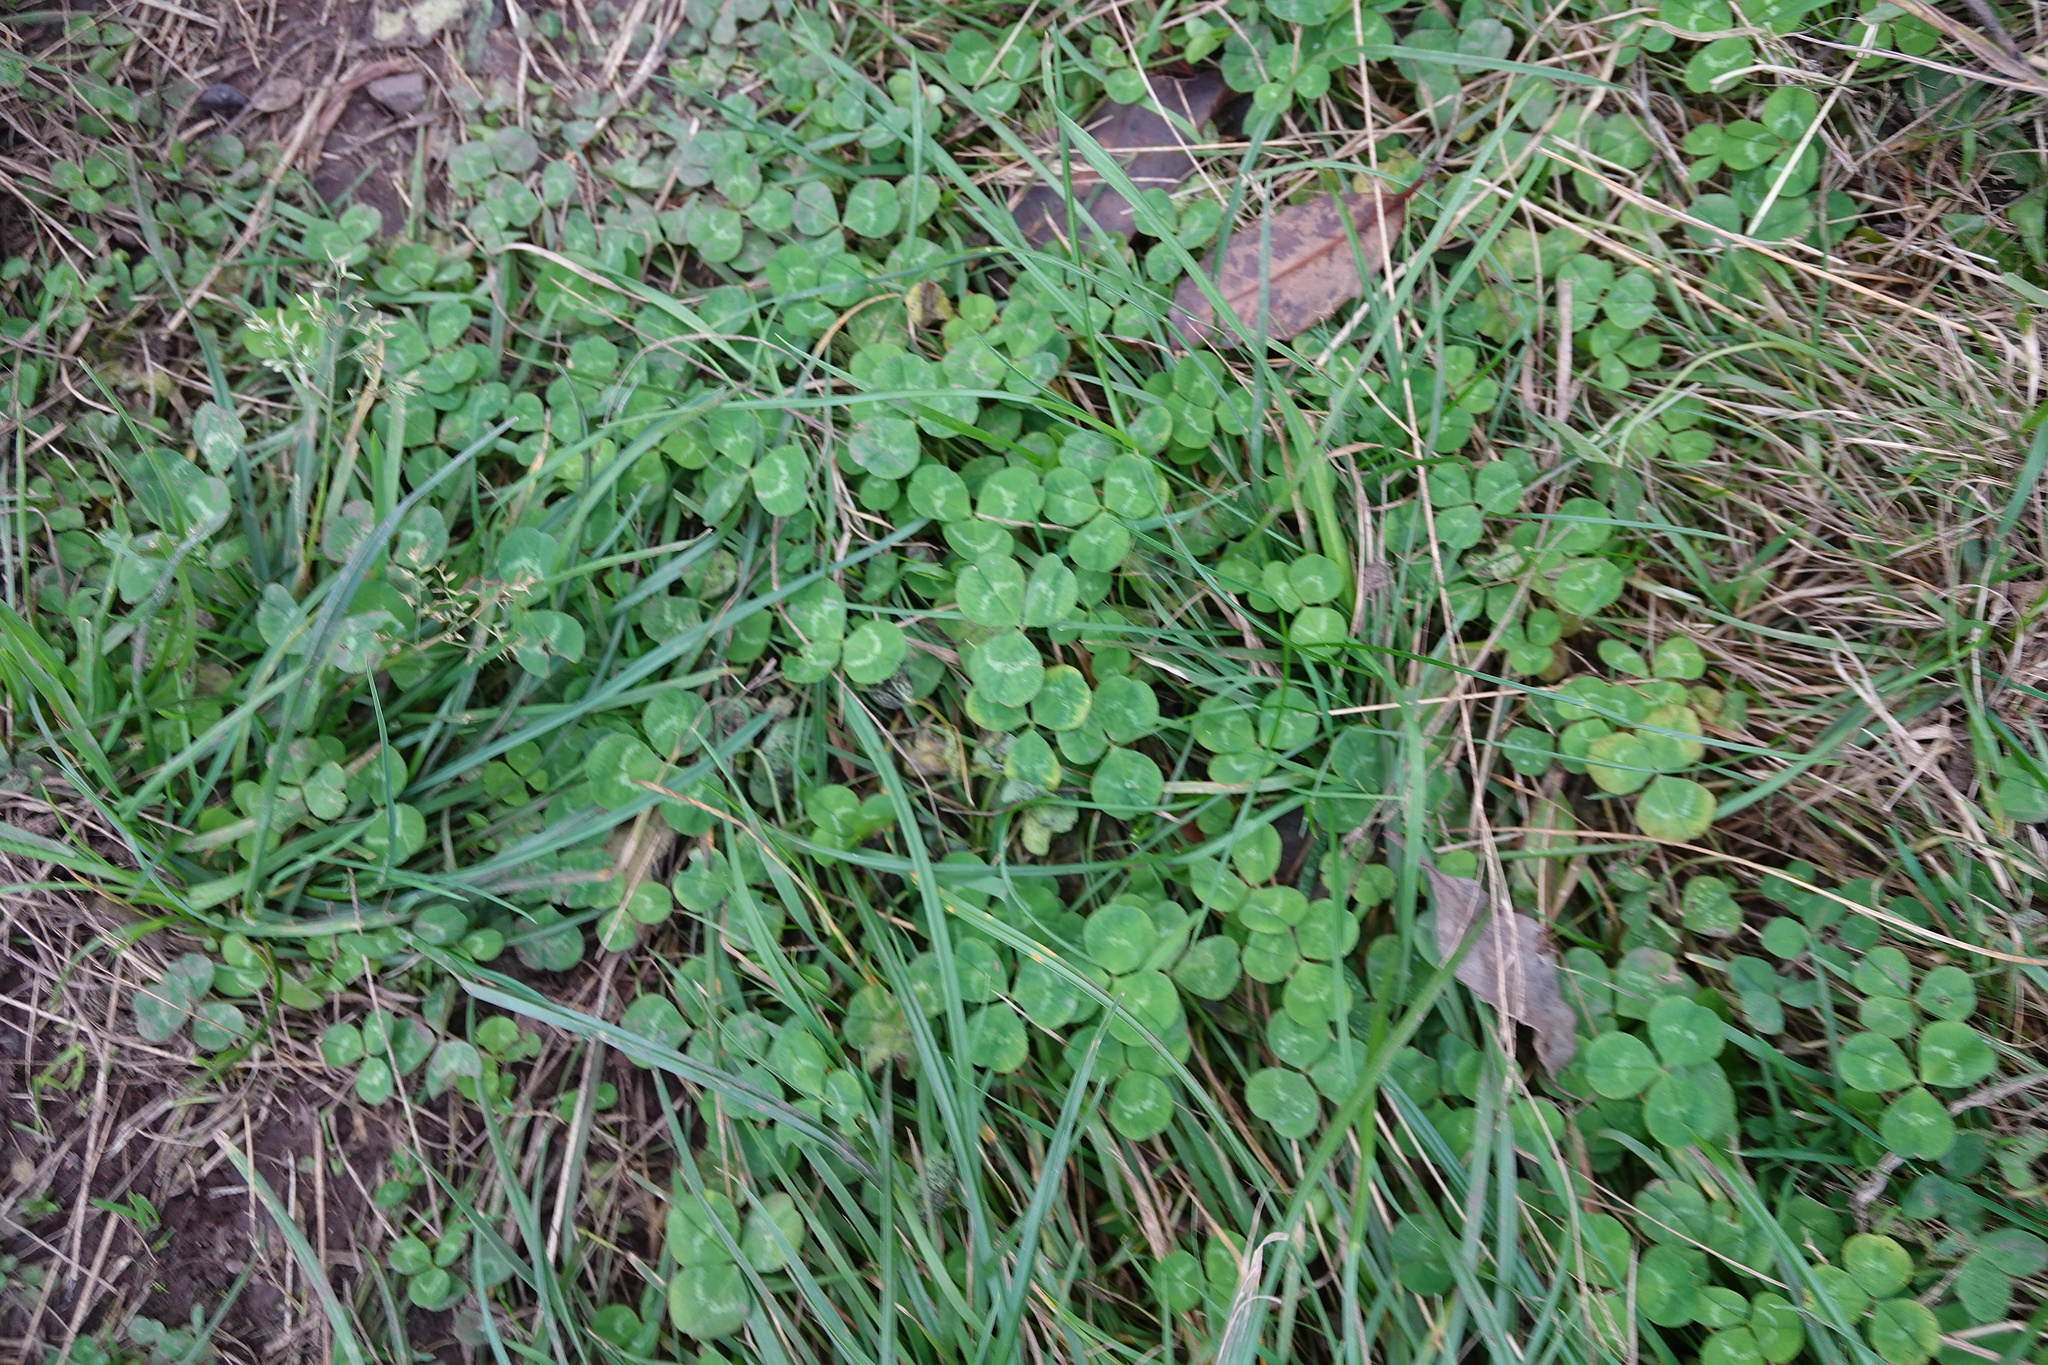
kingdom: Plantae
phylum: Tracheophyta
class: Magnoliopsida
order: Fabales
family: Fabaceae
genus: Trifolium
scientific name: Trifolium repens
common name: White clover
